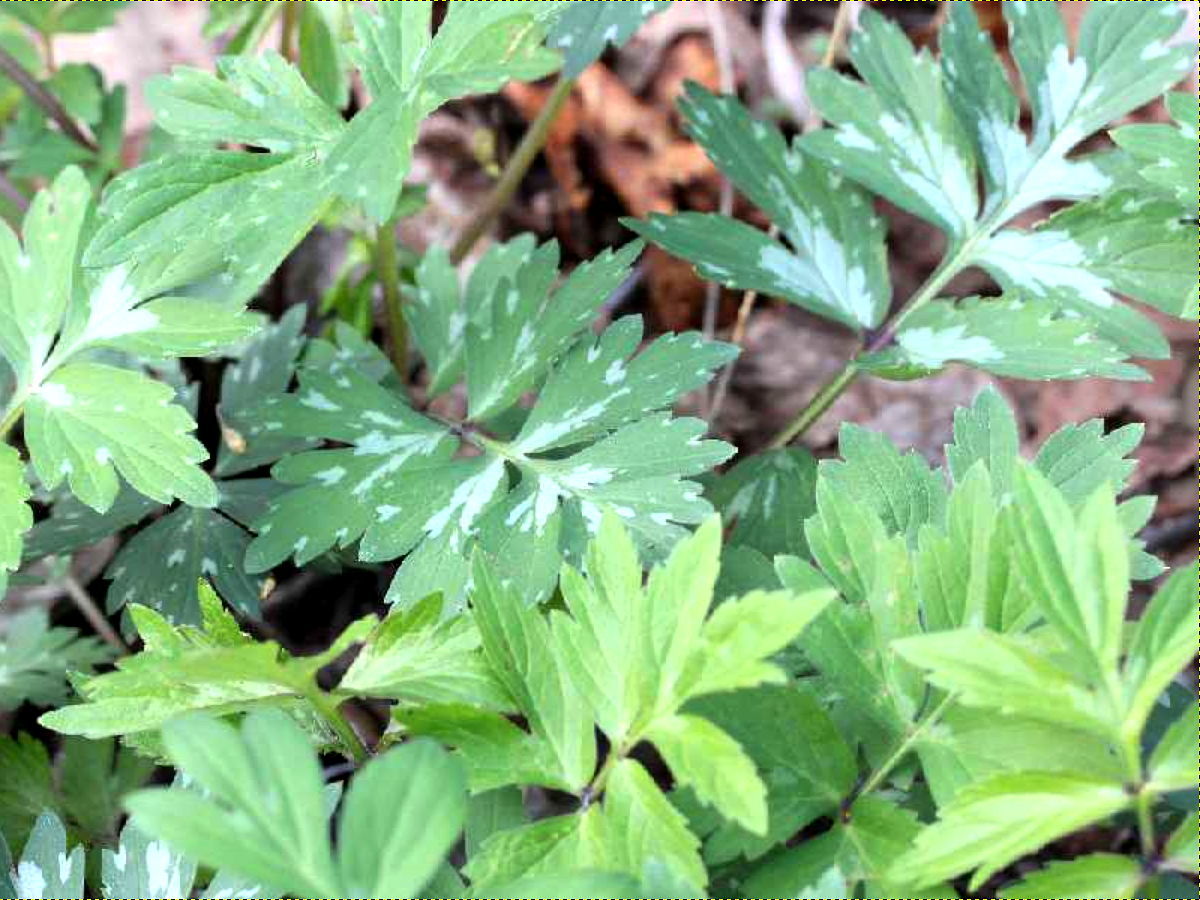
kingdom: Plantae
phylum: Tracheophyta
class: Magnoliopsida
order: Boraginales
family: Hydrophyllaceae
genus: Hydrophyllum
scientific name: Hydrophyllum virginianum
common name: Virginia waterleaf
